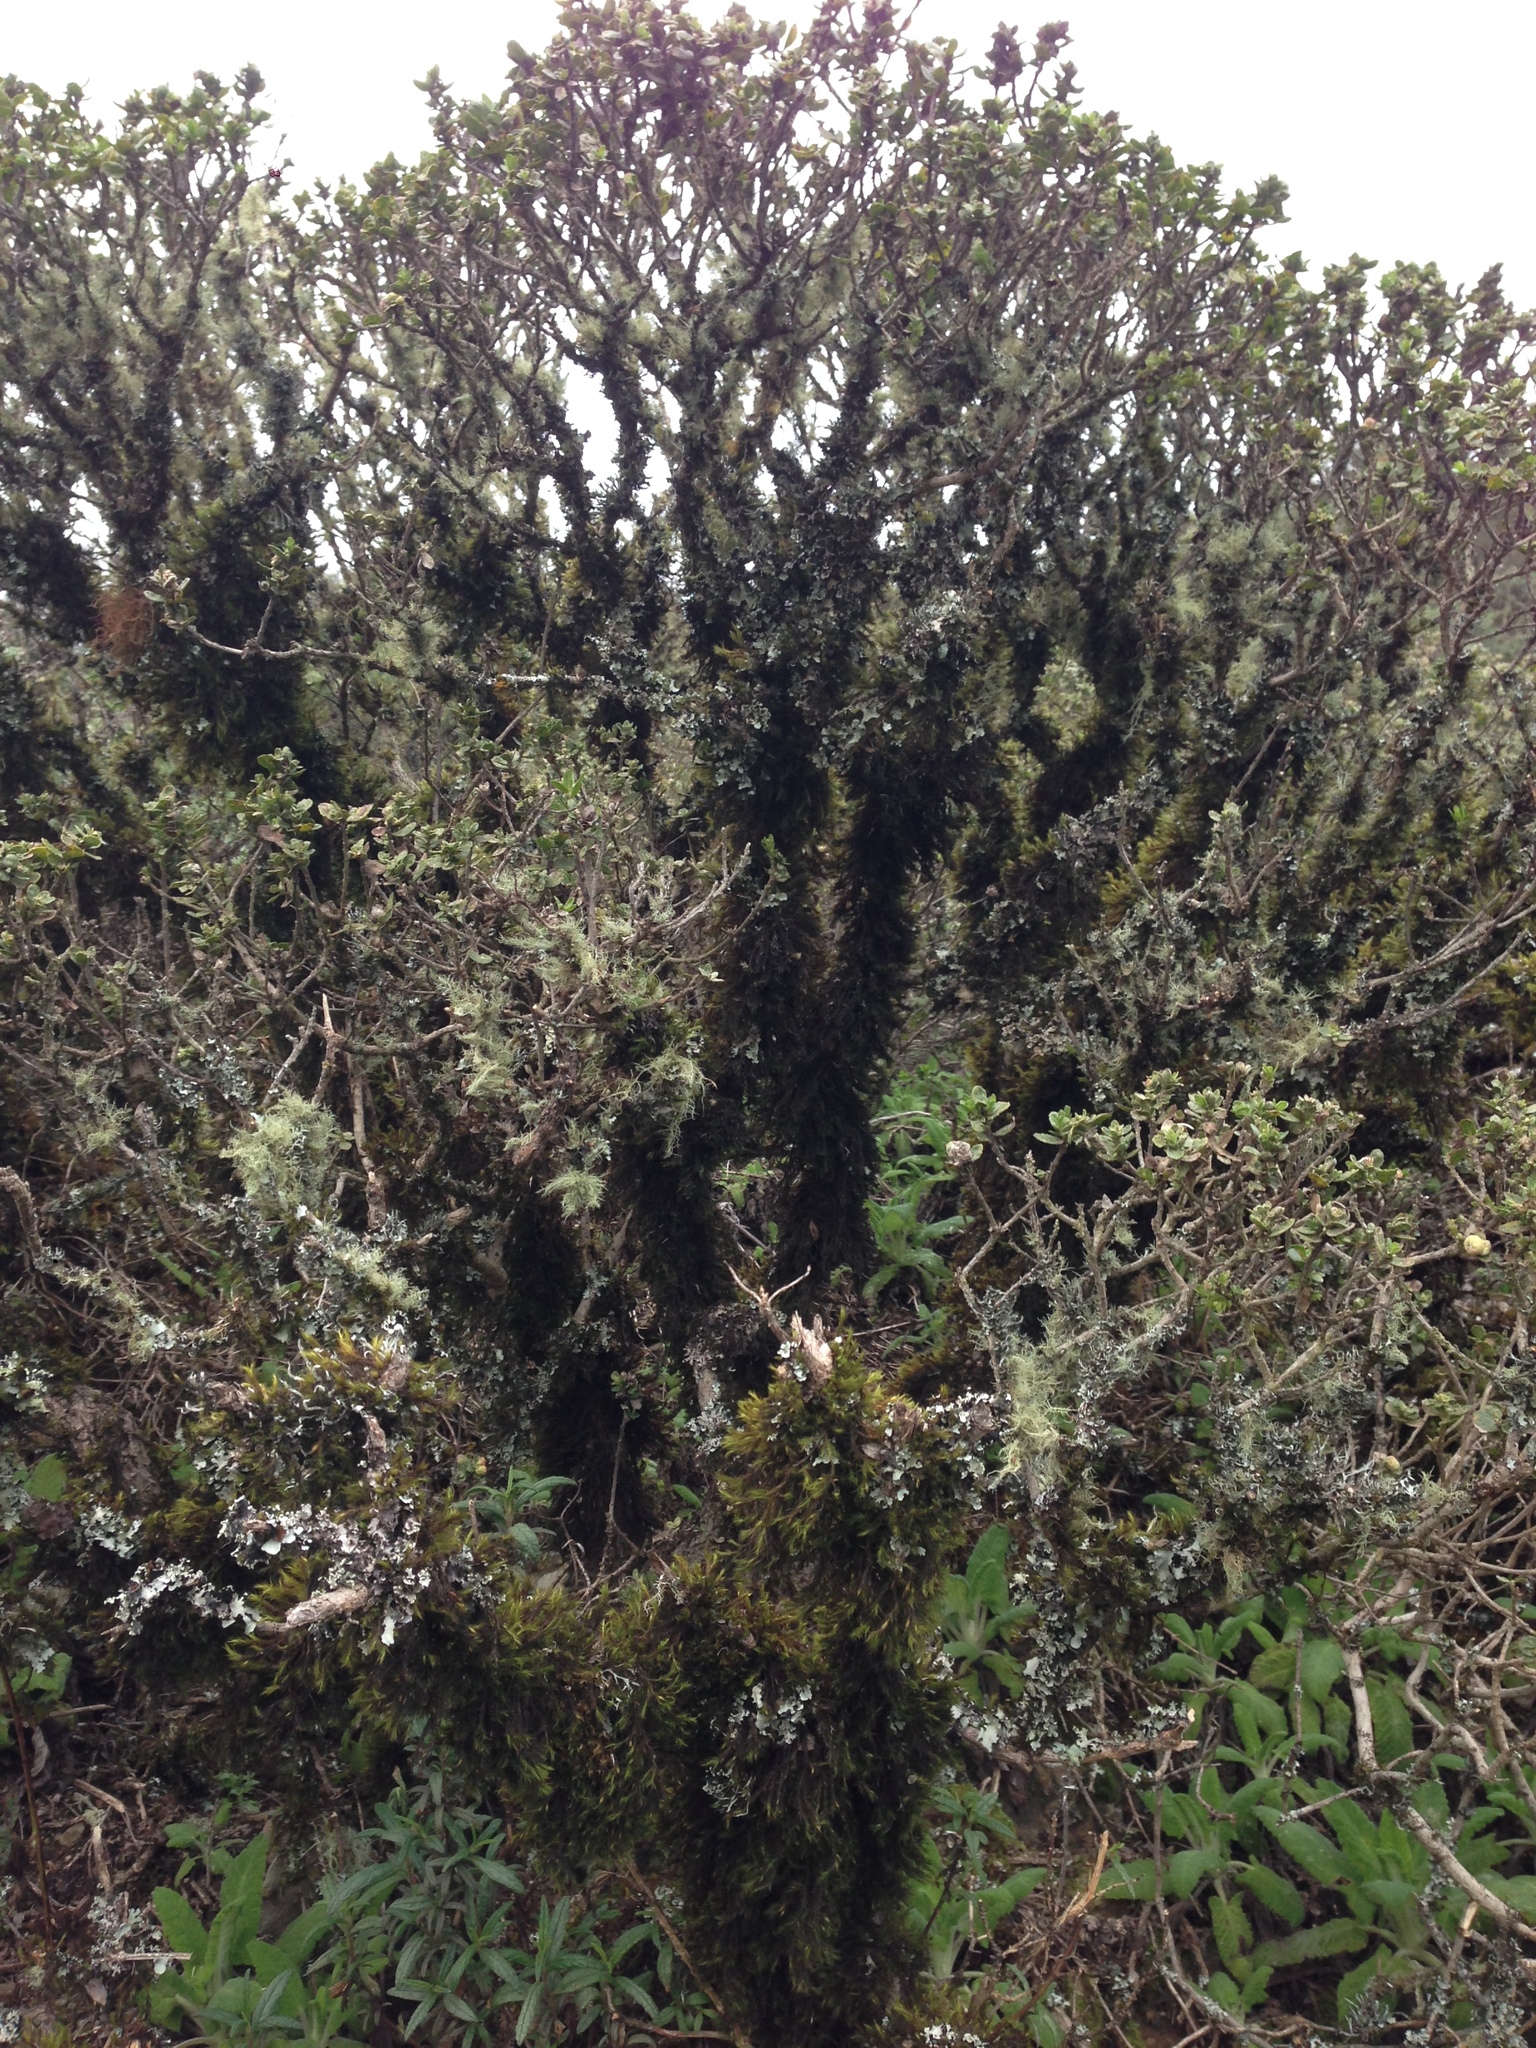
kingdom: Plantae
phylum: Tracheophyta
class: Magnoliopsida
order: Asterales
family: Asteraceae
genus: Baccharis
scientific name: Baccharis pilularis
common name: Coyotebrush
